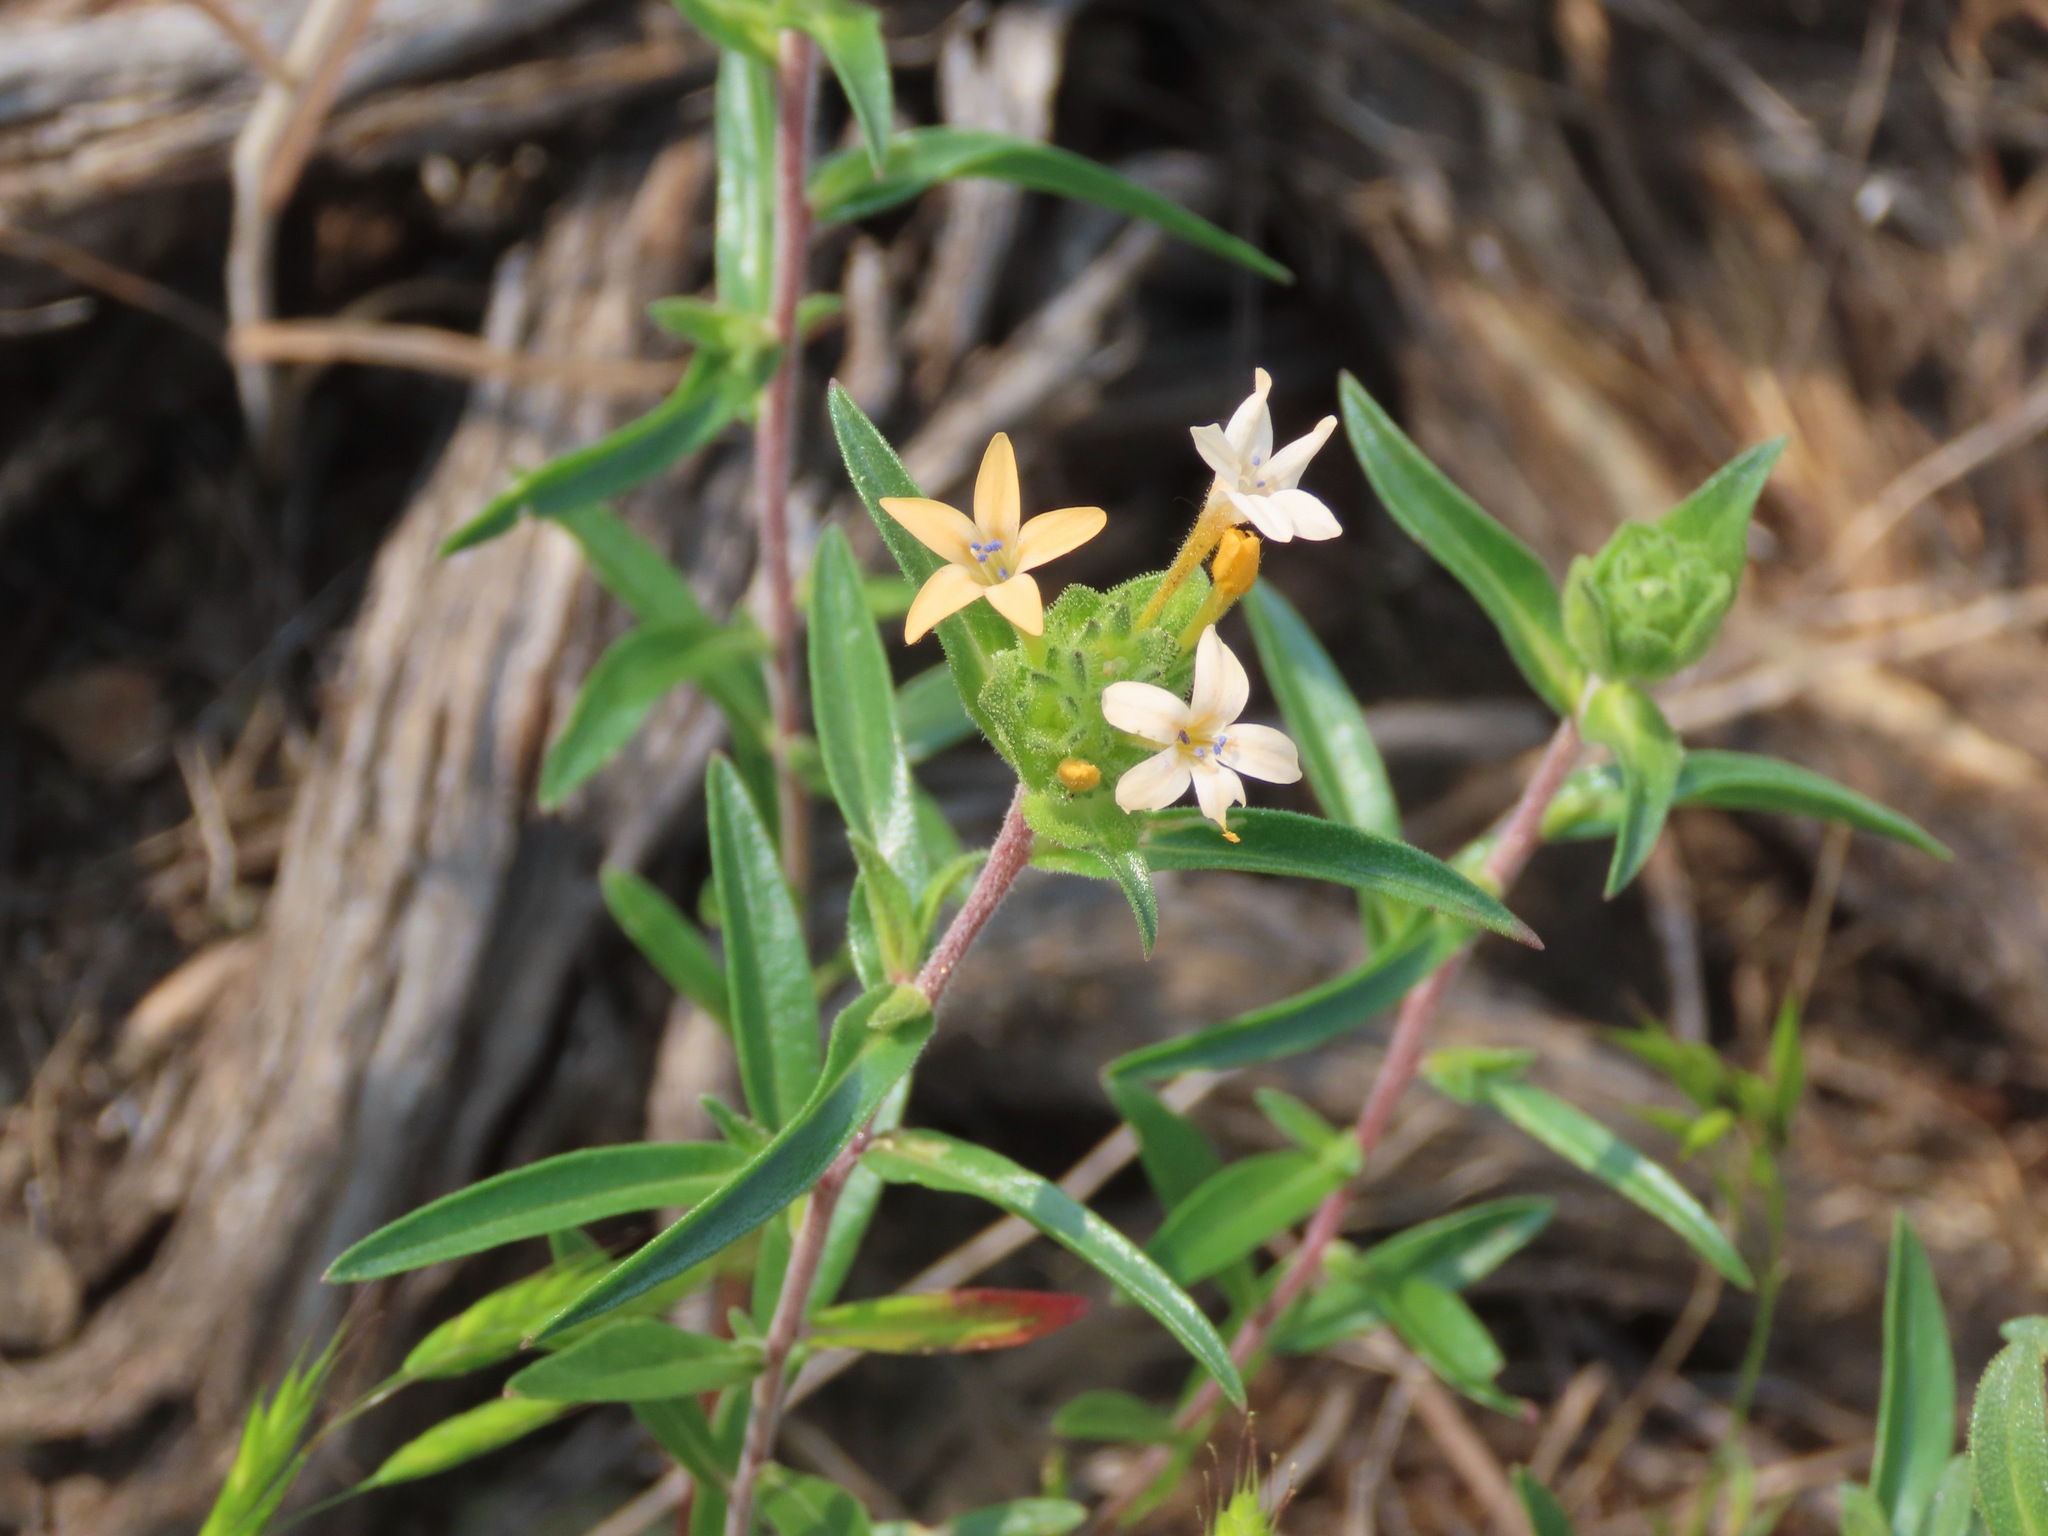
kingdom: Plantae
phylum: Tracheophyta
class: Magnoliopsida
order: Ericales
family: Polemoniaceae
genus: Collomia
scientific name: Collomia grandiflora
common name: California strawflower
